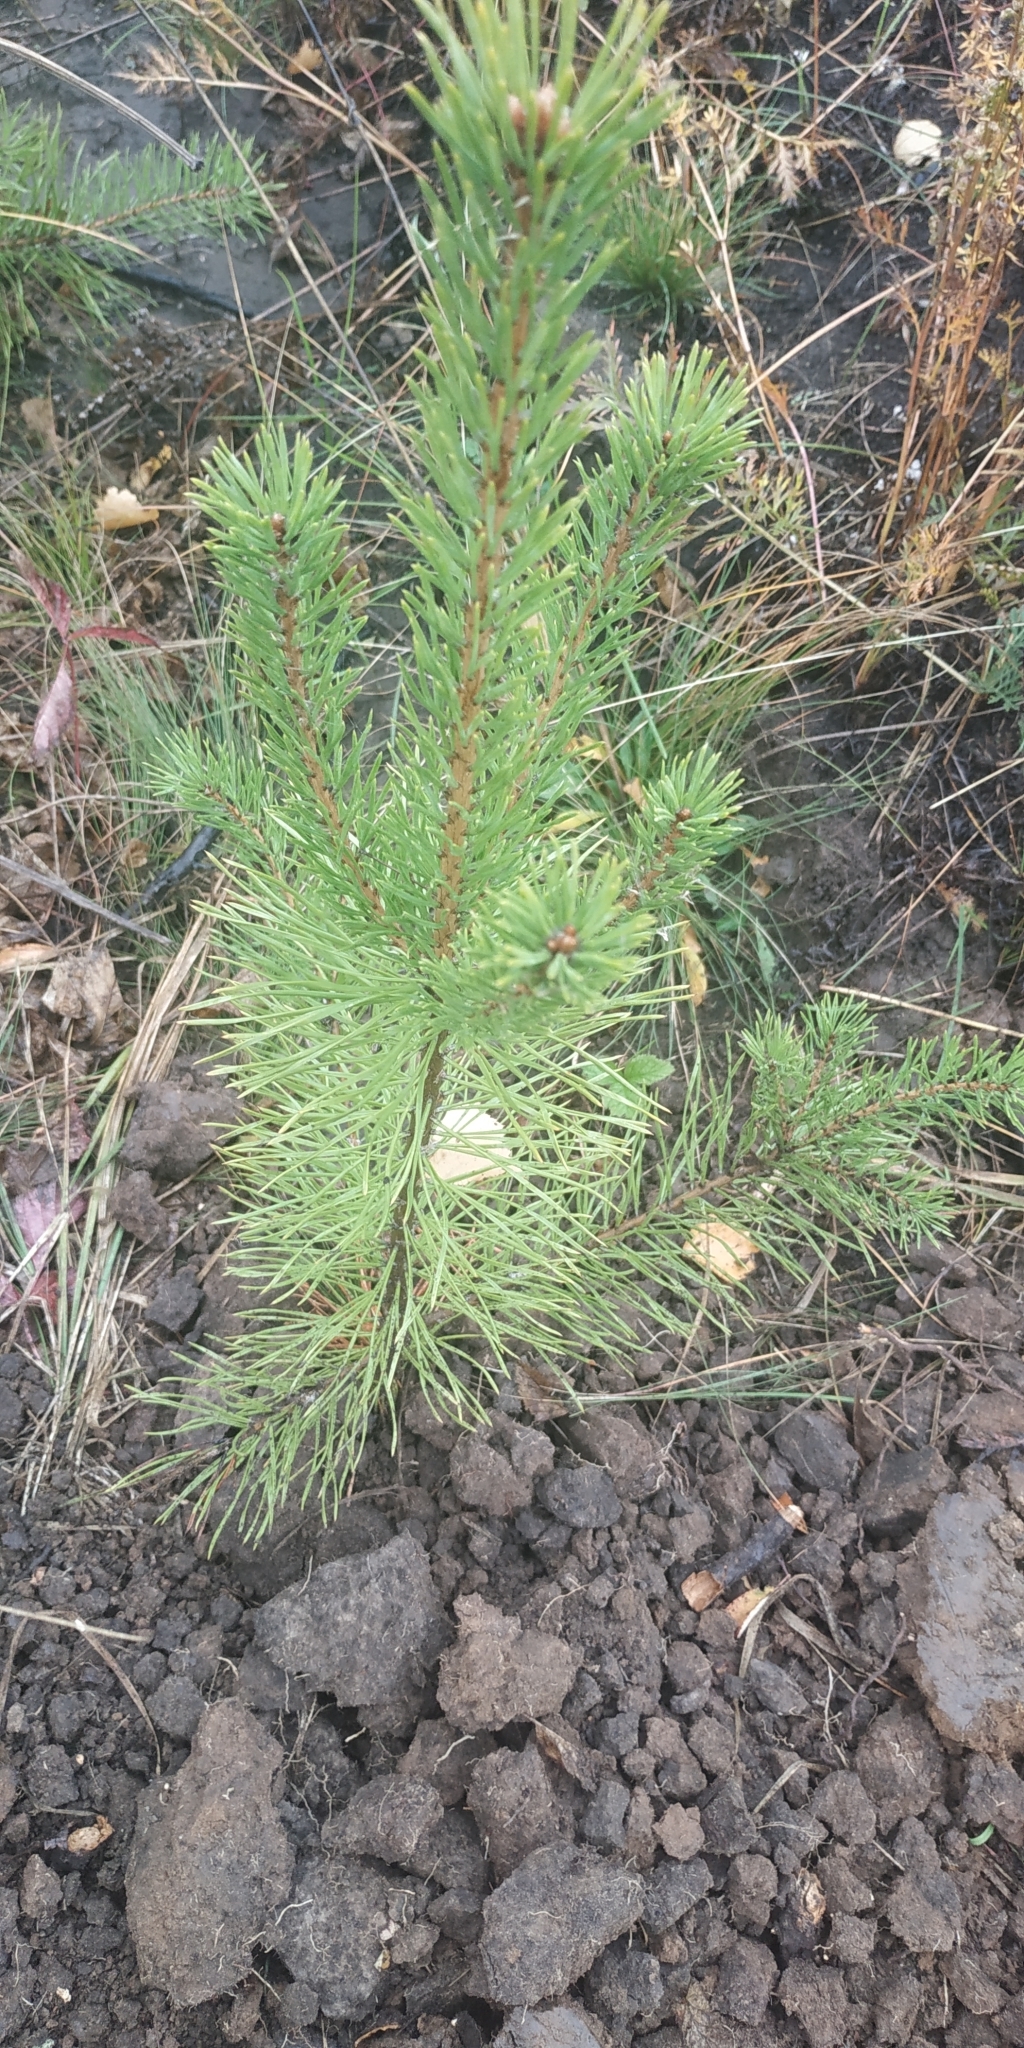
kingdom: Plantae
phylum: Tracheophyta
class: Pinopsida
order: Pinales
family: Pinaceae
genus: Pinus
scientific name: Pinus sylvestris
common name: Scots pine
